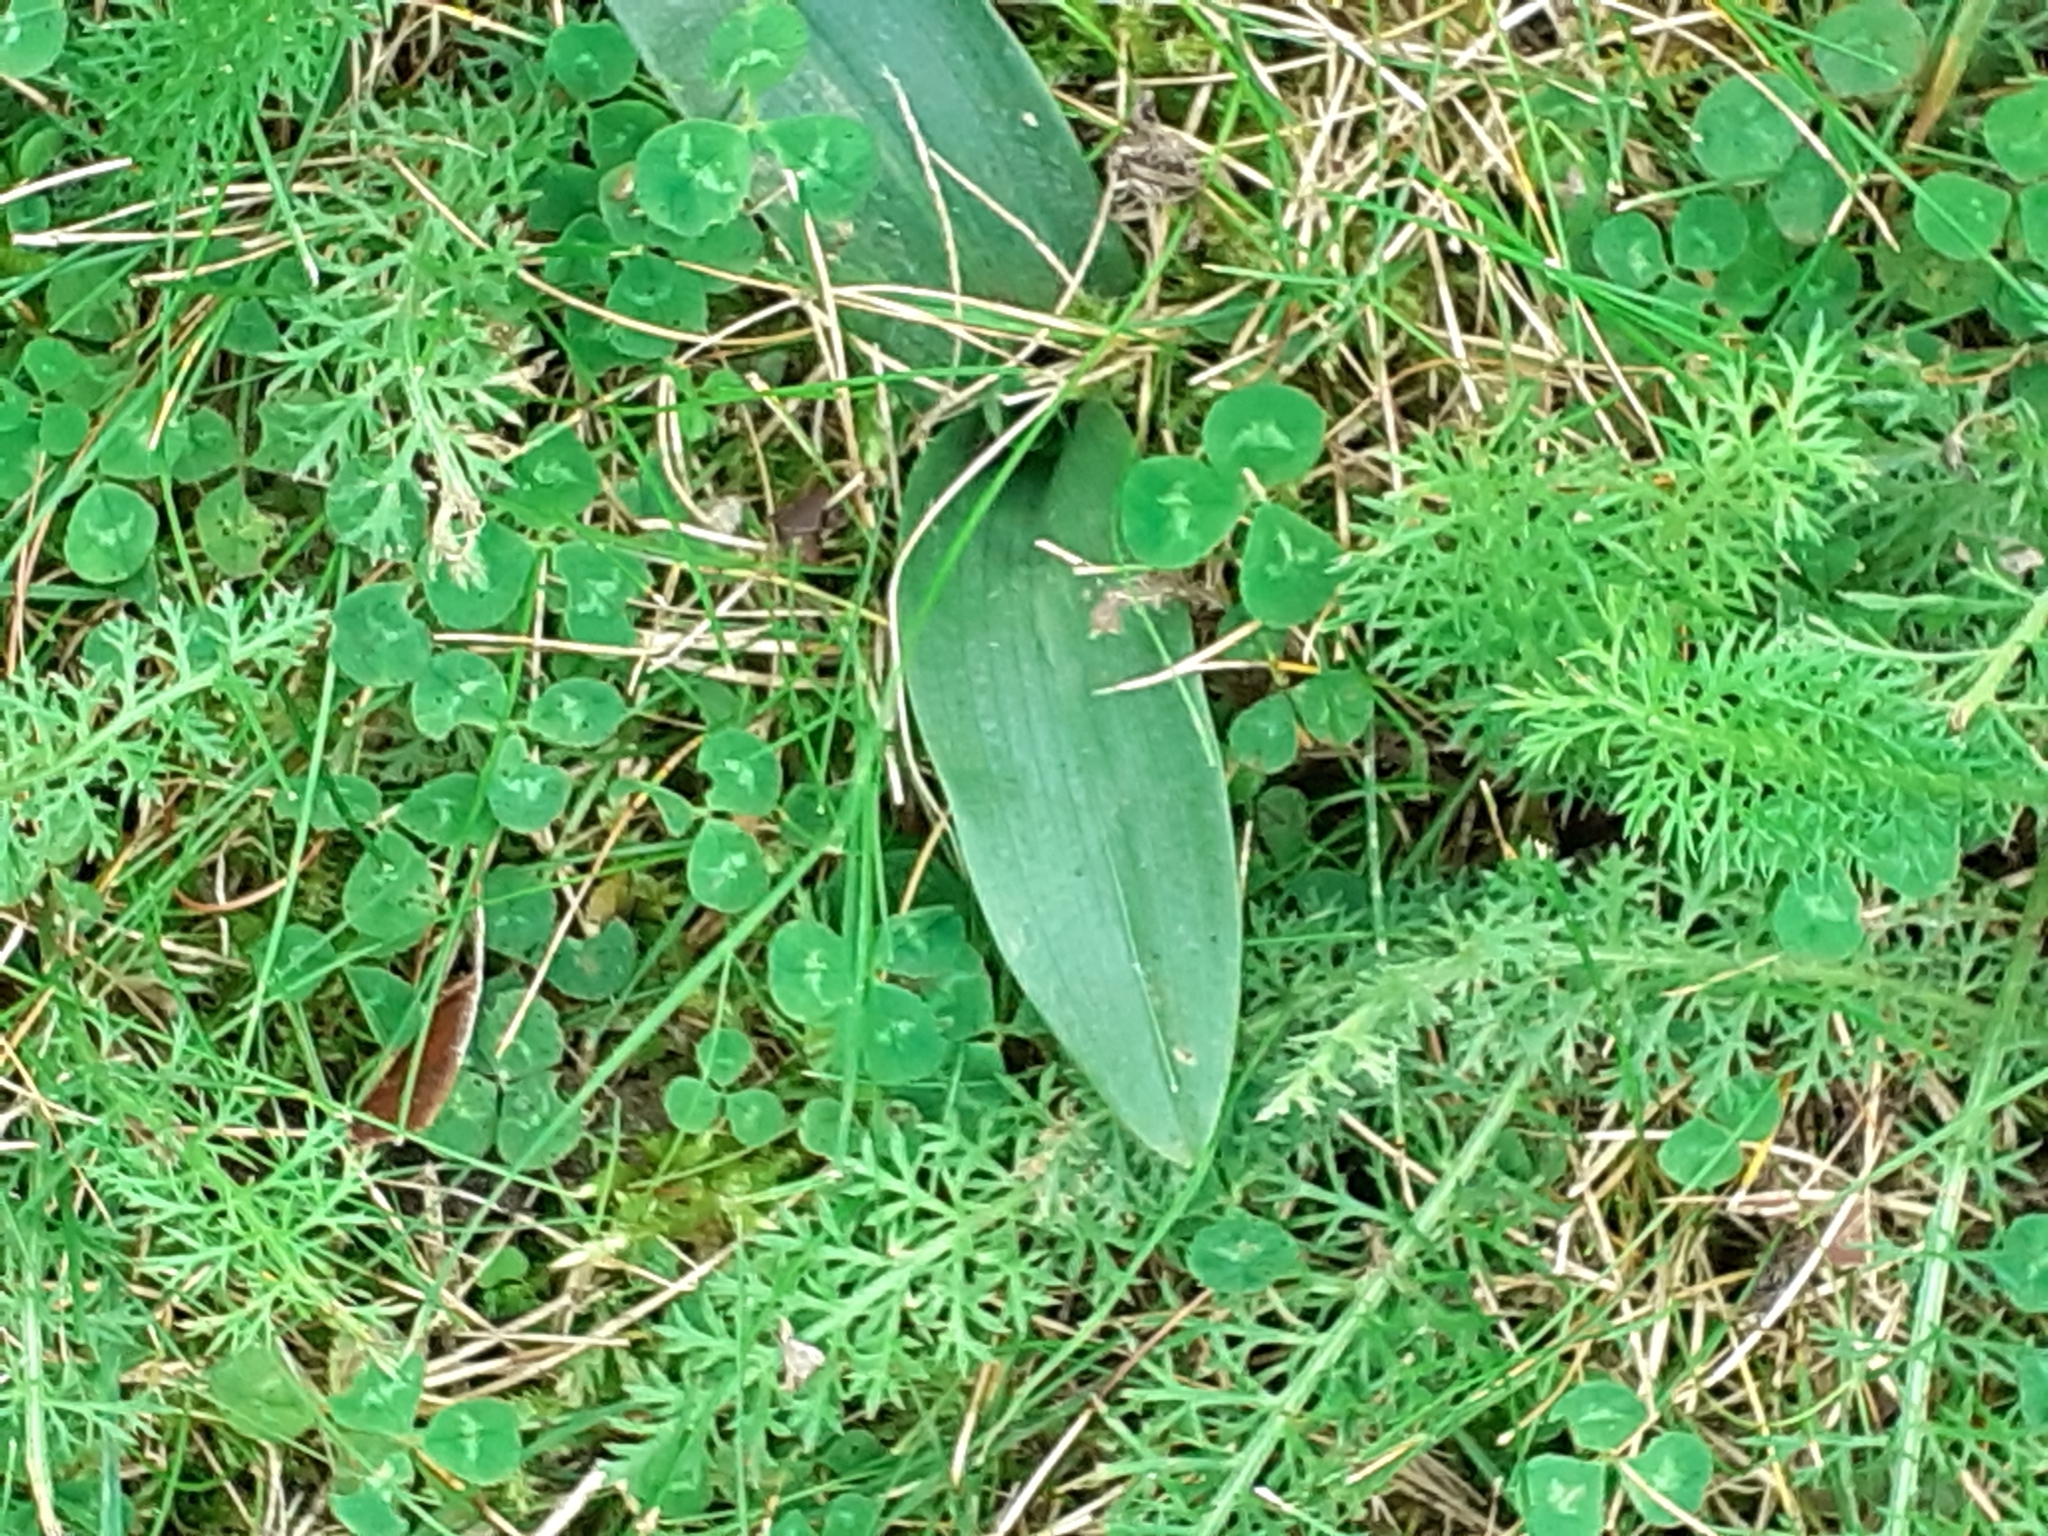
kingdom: Plantae
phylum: Tracheophyta
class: Liliopsida
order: Asparagales
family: Orchidaceae
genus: Ophrys
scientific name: Ophrys apifera
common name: Bee orchid
